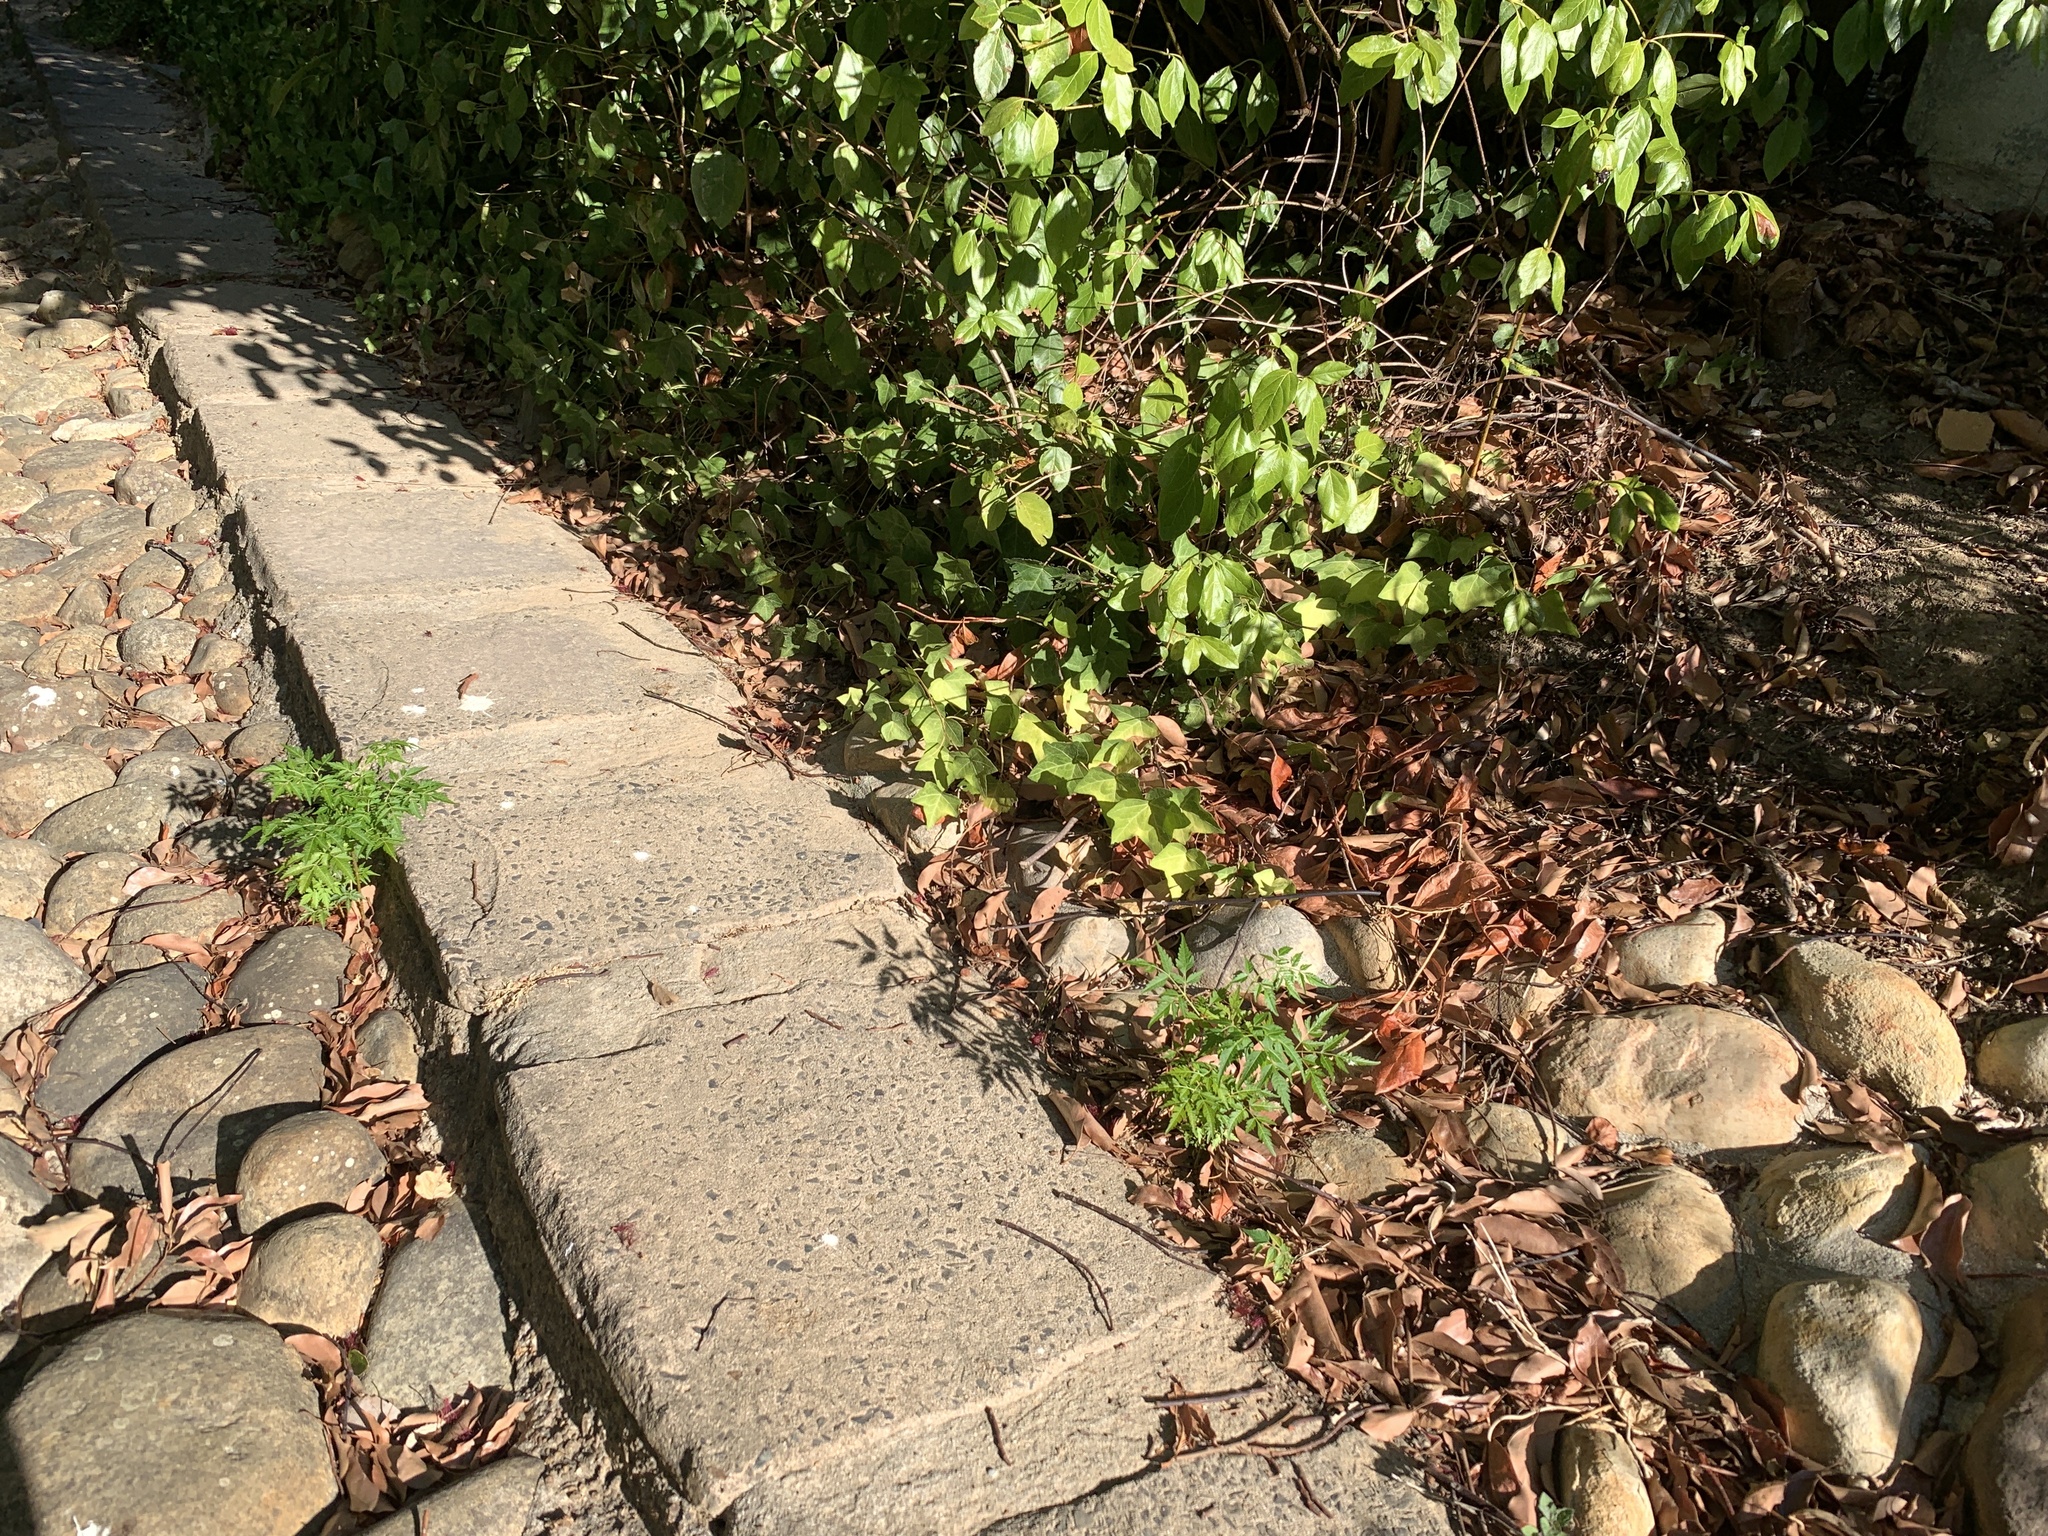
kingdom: Plantae
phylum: Tracheophyta
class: Magnoliopsida
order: Sapindales
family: Meliaceae
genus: Melia
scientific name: Melia azedarach
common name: Chinaberrytree
